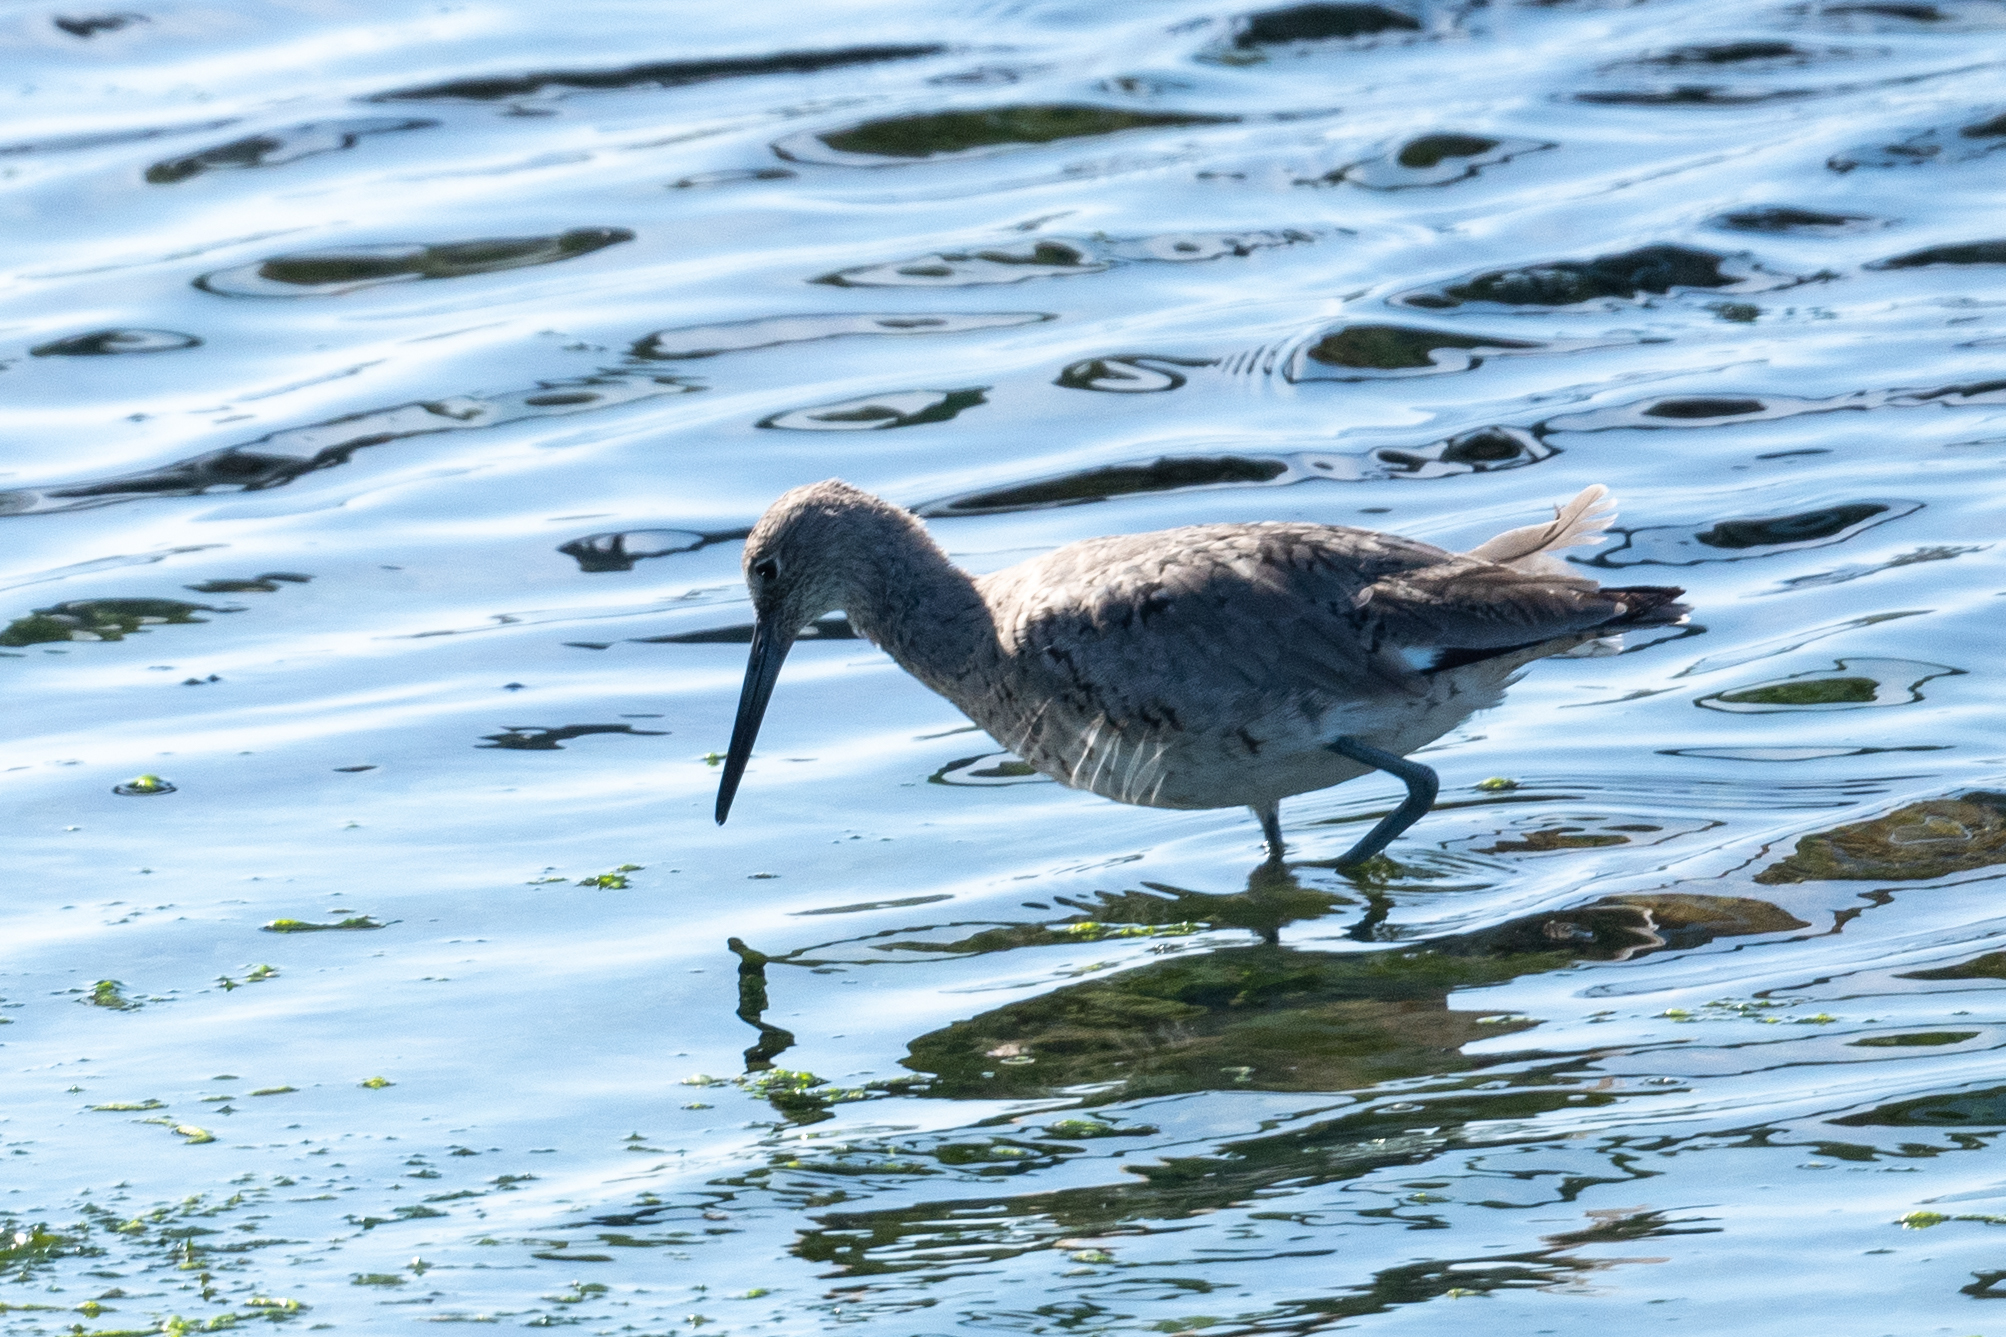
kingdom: Animalia
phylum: Chordata
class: Aves
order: Charadriiformes
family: Scolopacidae
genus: Tringa
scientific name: Tringa semipalmata
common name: Willet
